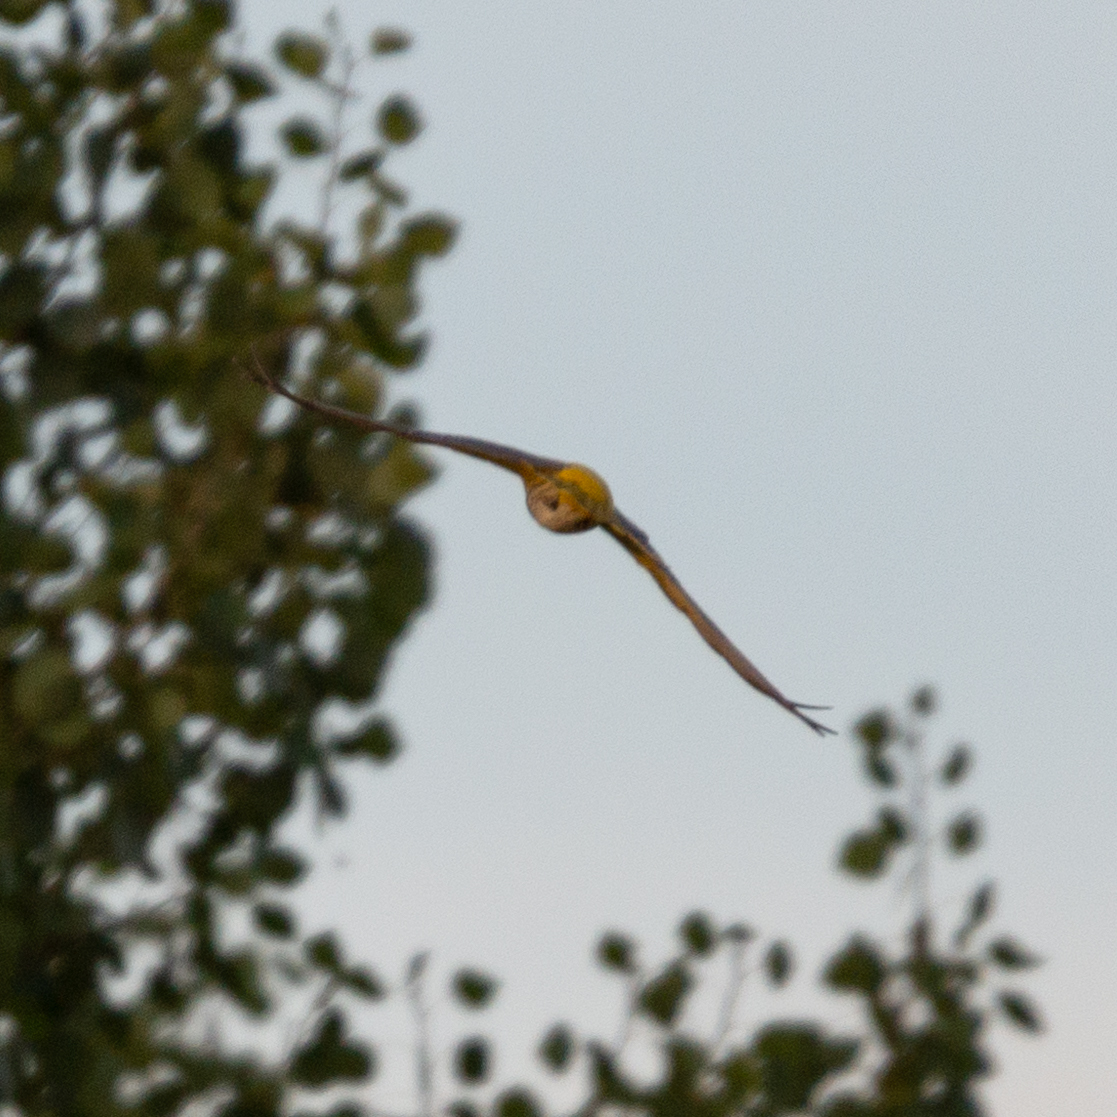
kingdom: Animalia
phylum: Chordata
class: Aves
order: Passeriformes
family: Oriolidae
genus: Oriolus
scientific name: Oriolus oriolus
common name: Eurasian golden oriole
